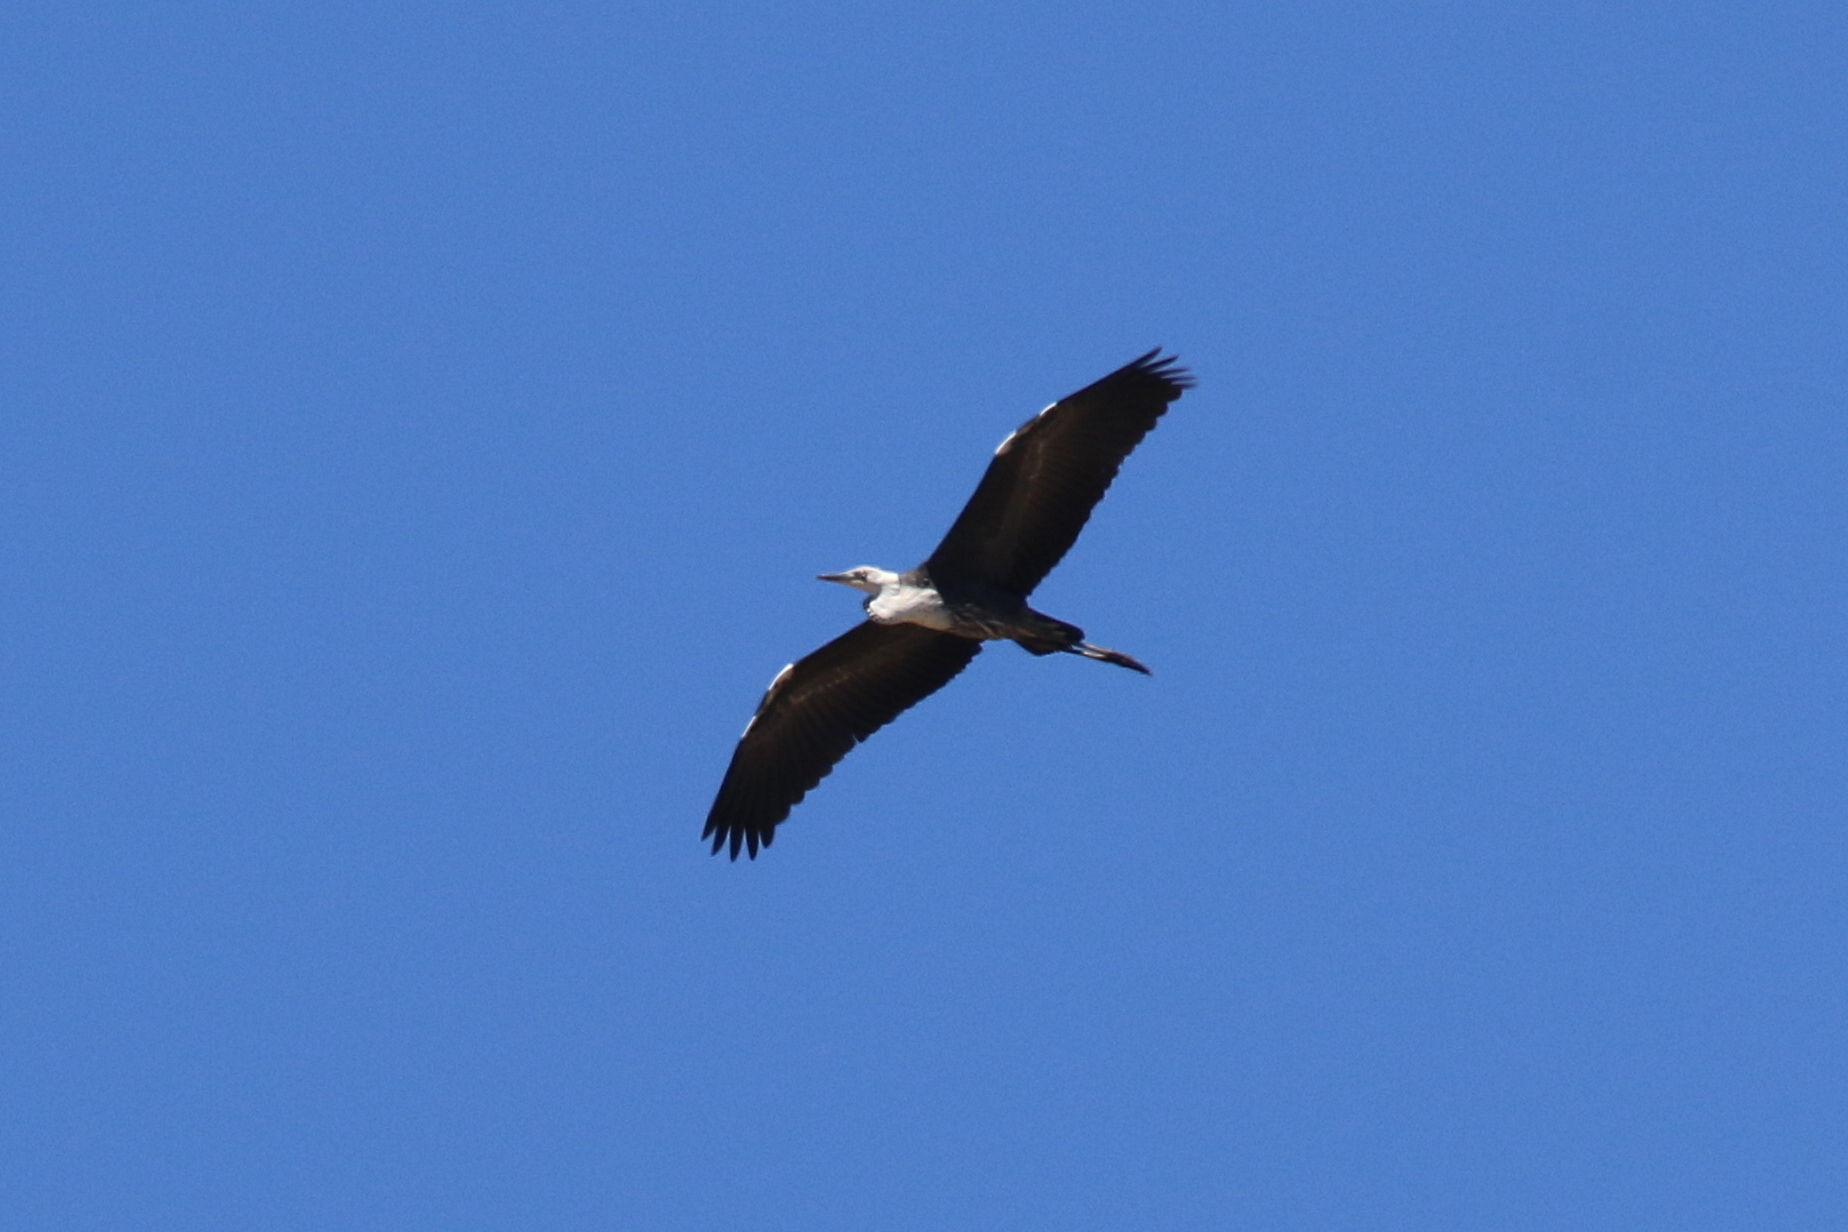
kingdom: Animalia
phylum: Chordata
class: Aves
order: Pelecaniformes
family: Ardeidae
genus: Ardea
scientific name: Ardea pacifica
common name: White-necked heron
